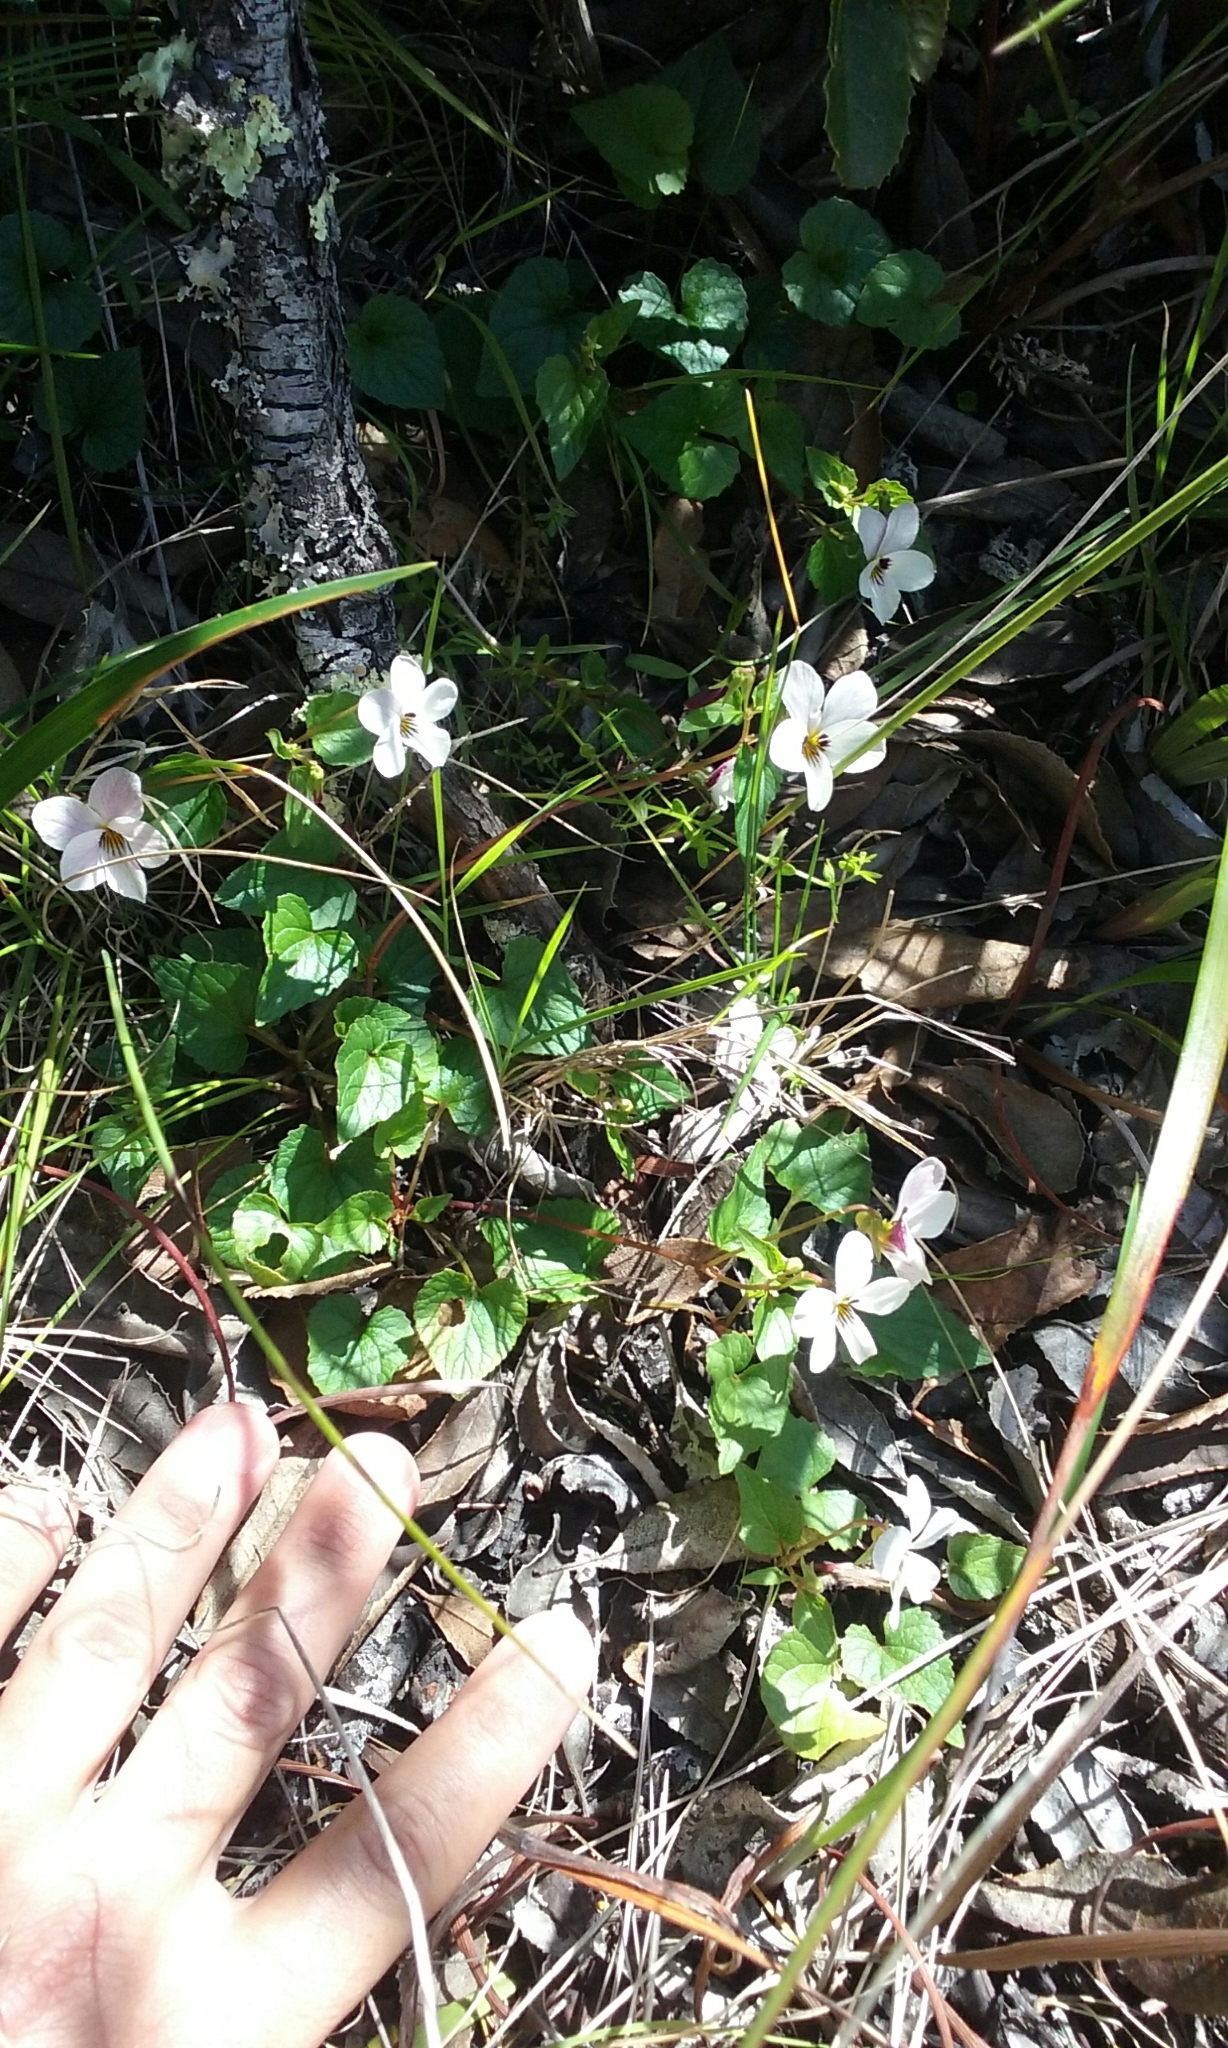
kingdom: Plantae
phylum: Tracheophyta
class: Magnoliopsida
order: Malpighiales
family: Violaceae
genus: Viola
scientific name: Viola ocellata
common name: Western heart's ease
